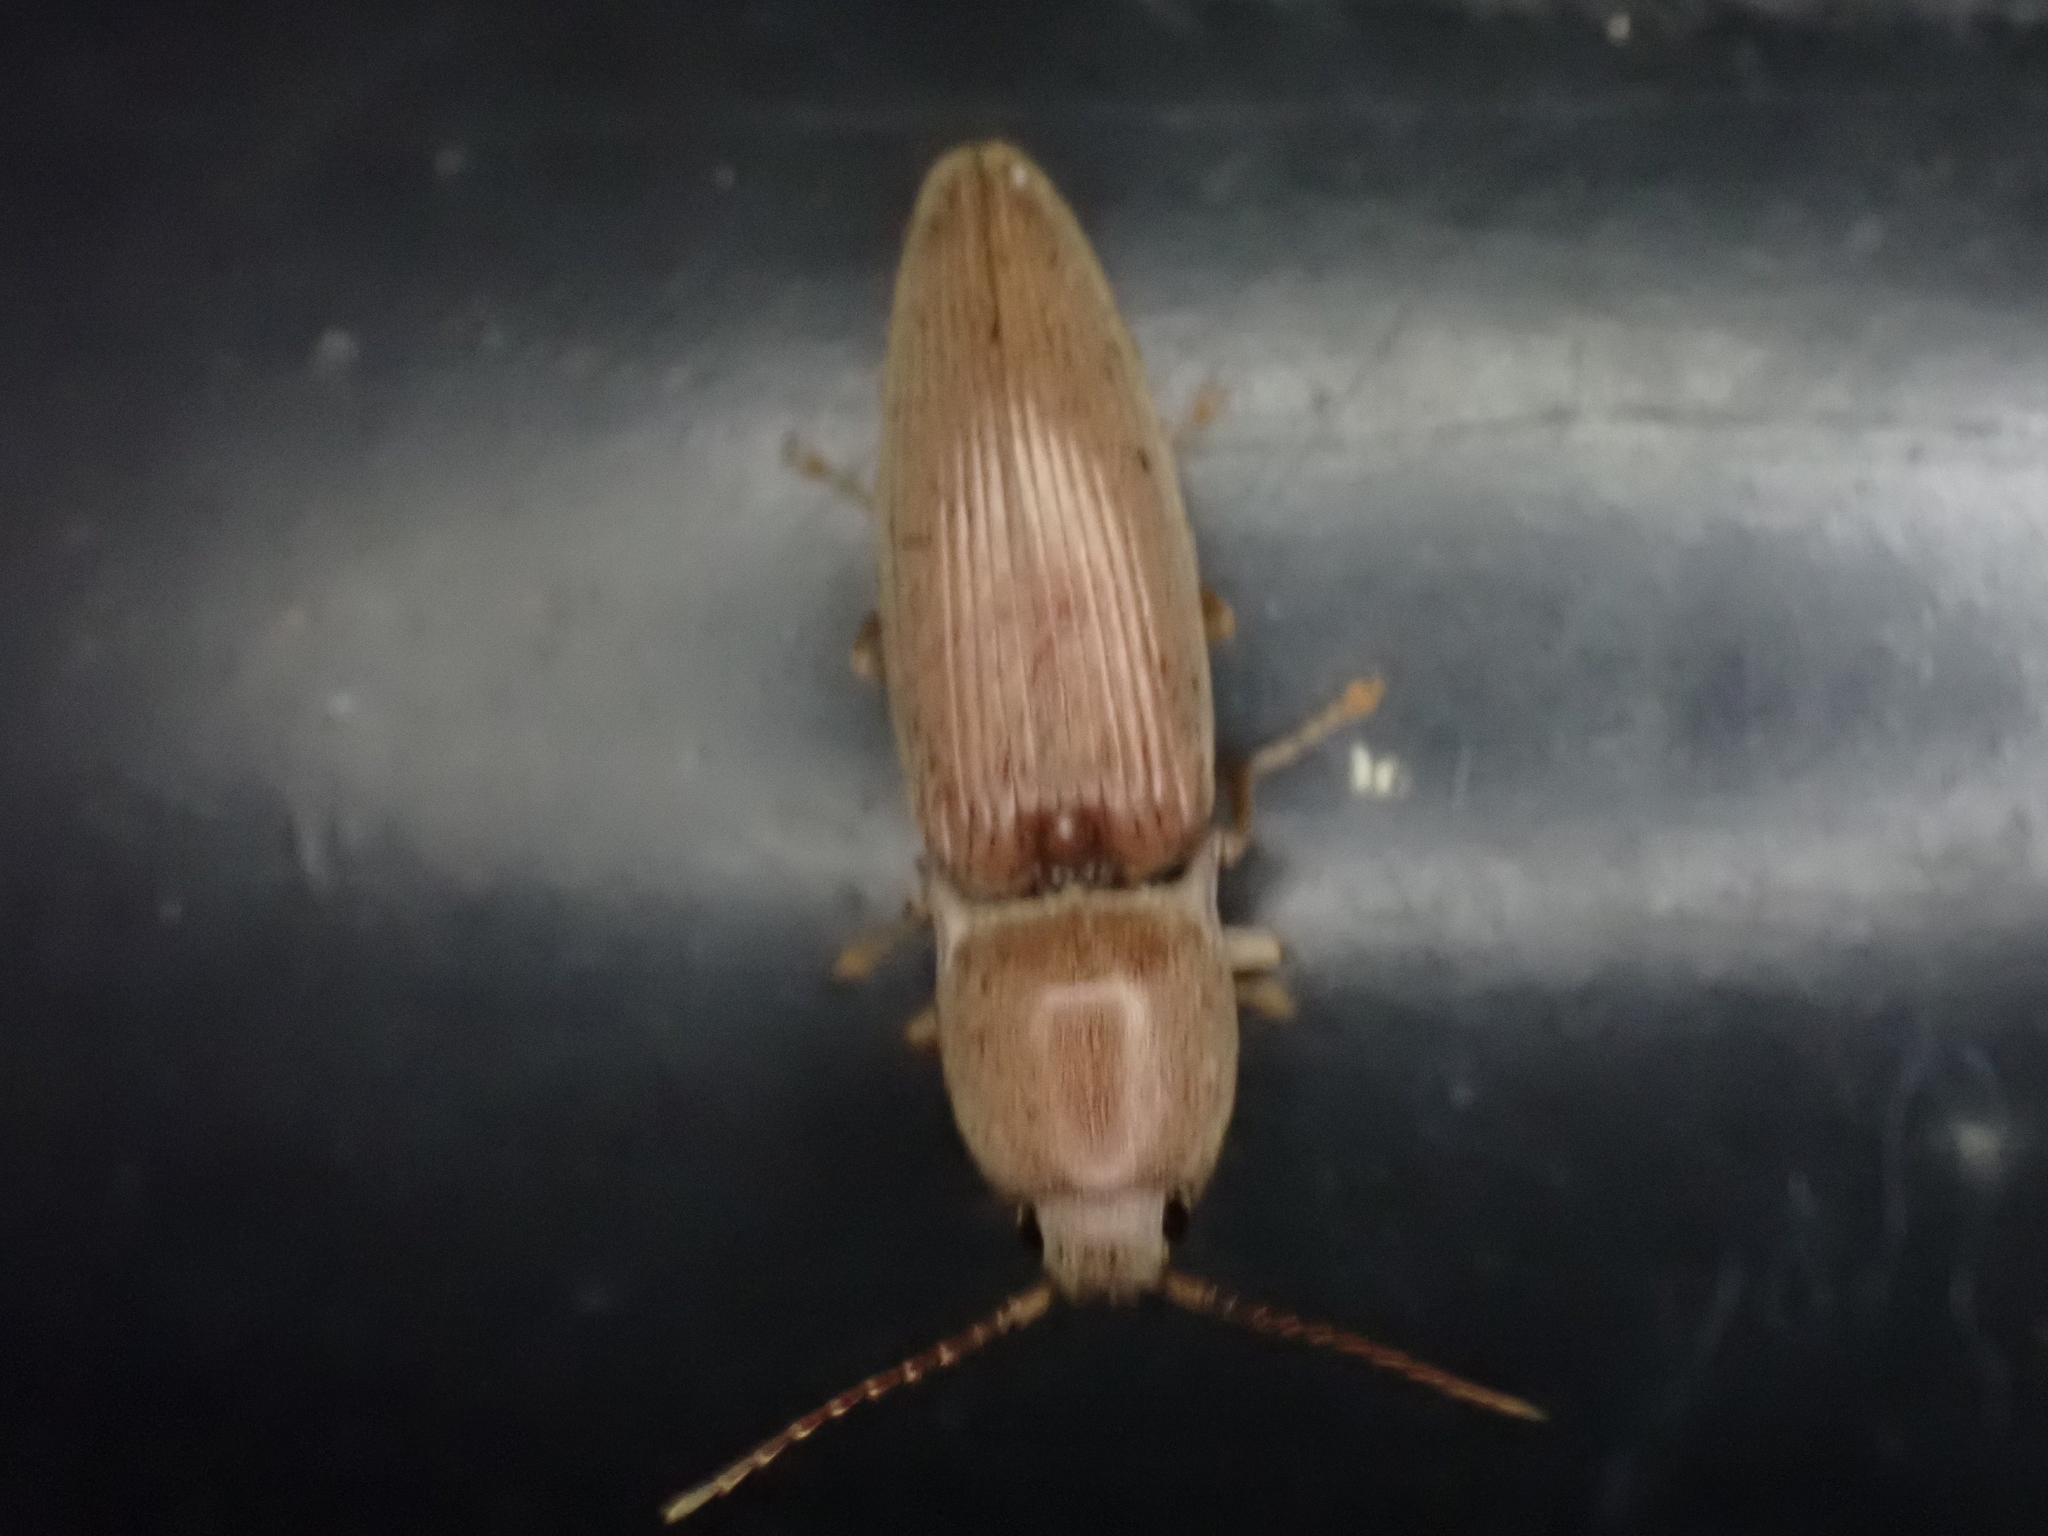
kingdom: Animalia
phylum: Arthropoda
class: Insecta
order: Coleoptera
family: Elateridae
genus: Monocrepidius
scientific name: Monocrepidius lividus
